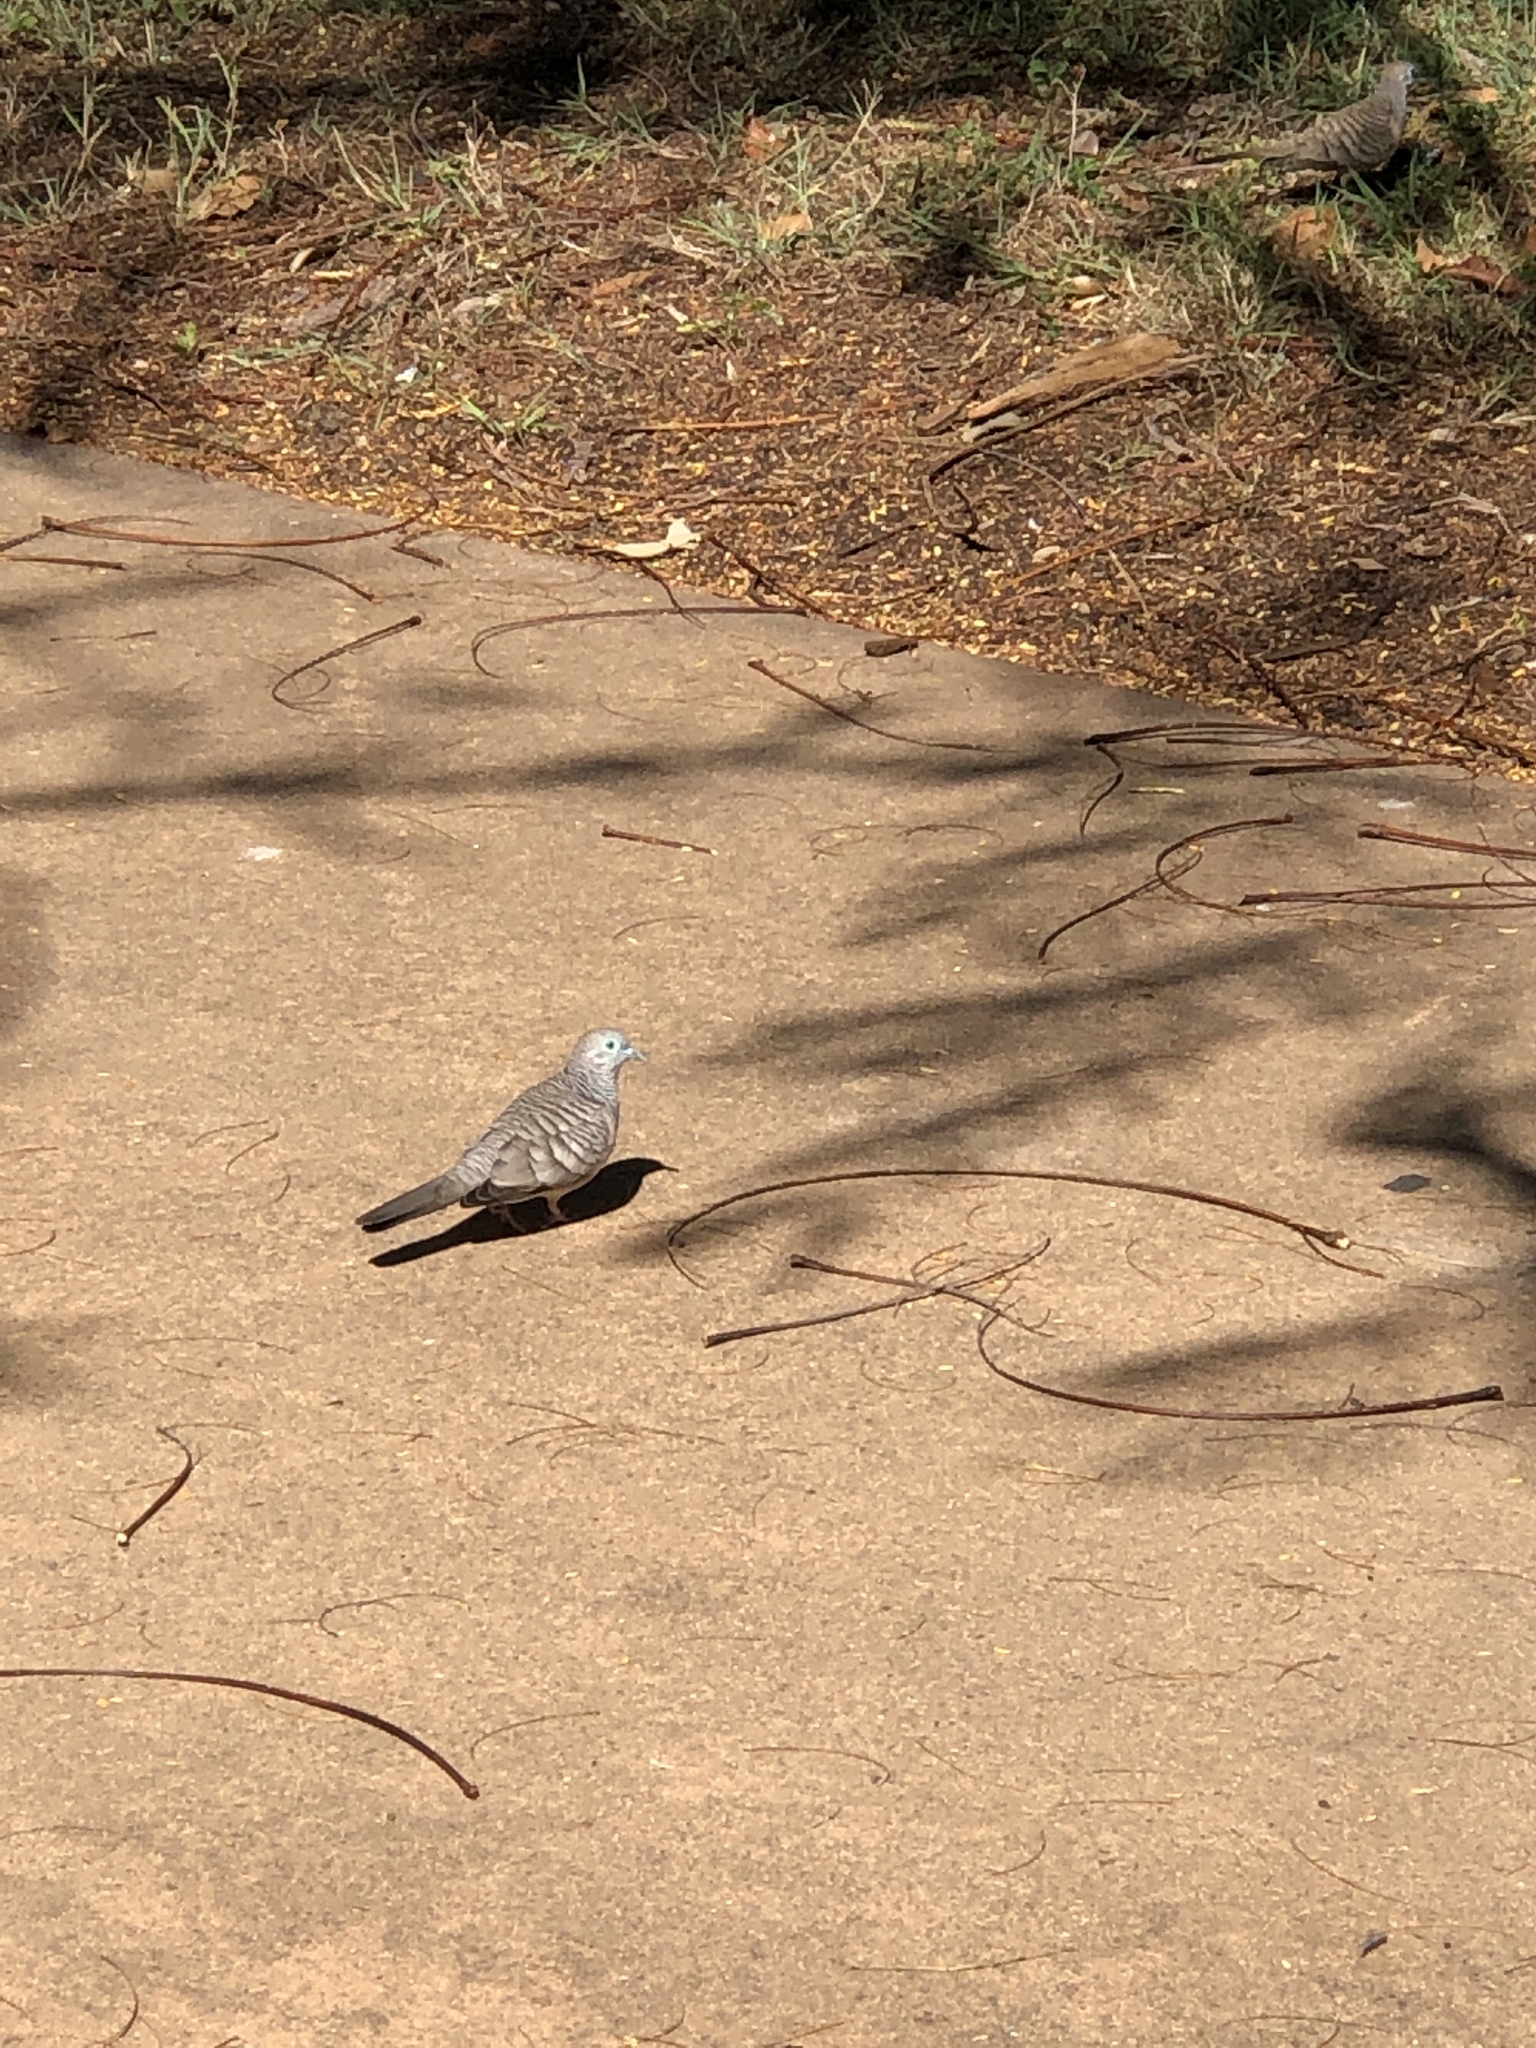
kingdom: Animalia
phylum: Chordata
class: Aves
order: Columbiformes
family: Columbidae
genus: Geopelia
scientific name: Geopelia placida
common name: Peaceful dove
